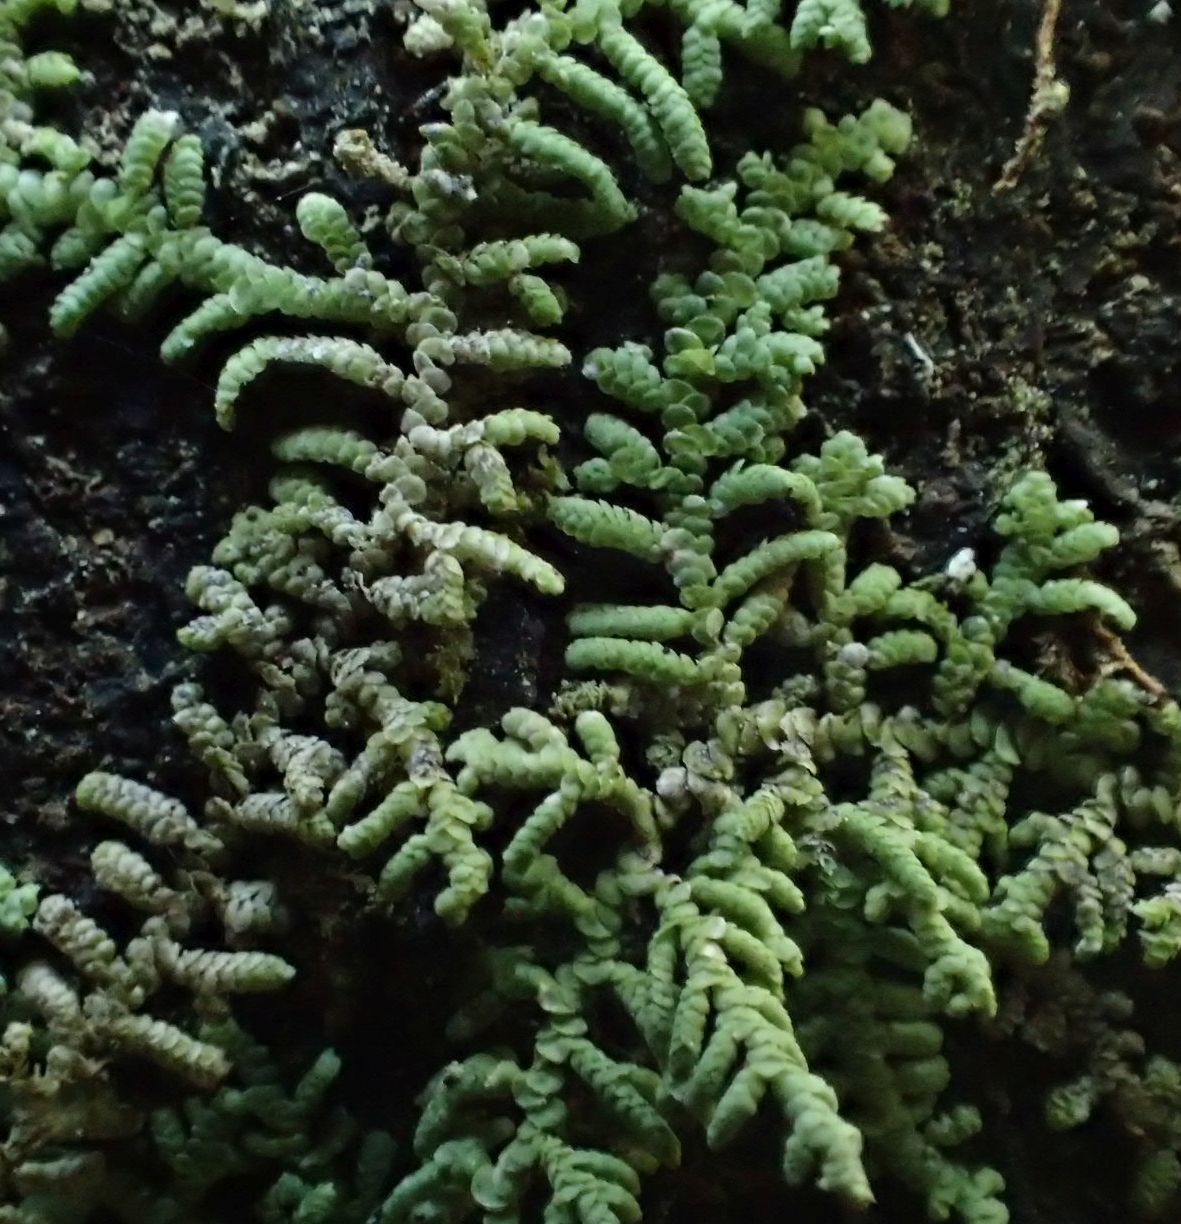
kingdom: Plantae
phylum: Marchantiophyta
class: Jungermanniopsida
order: Porellales
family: Lepidolaenaceae
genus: Lepidolaena
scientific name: Lepidolaena clavigera
